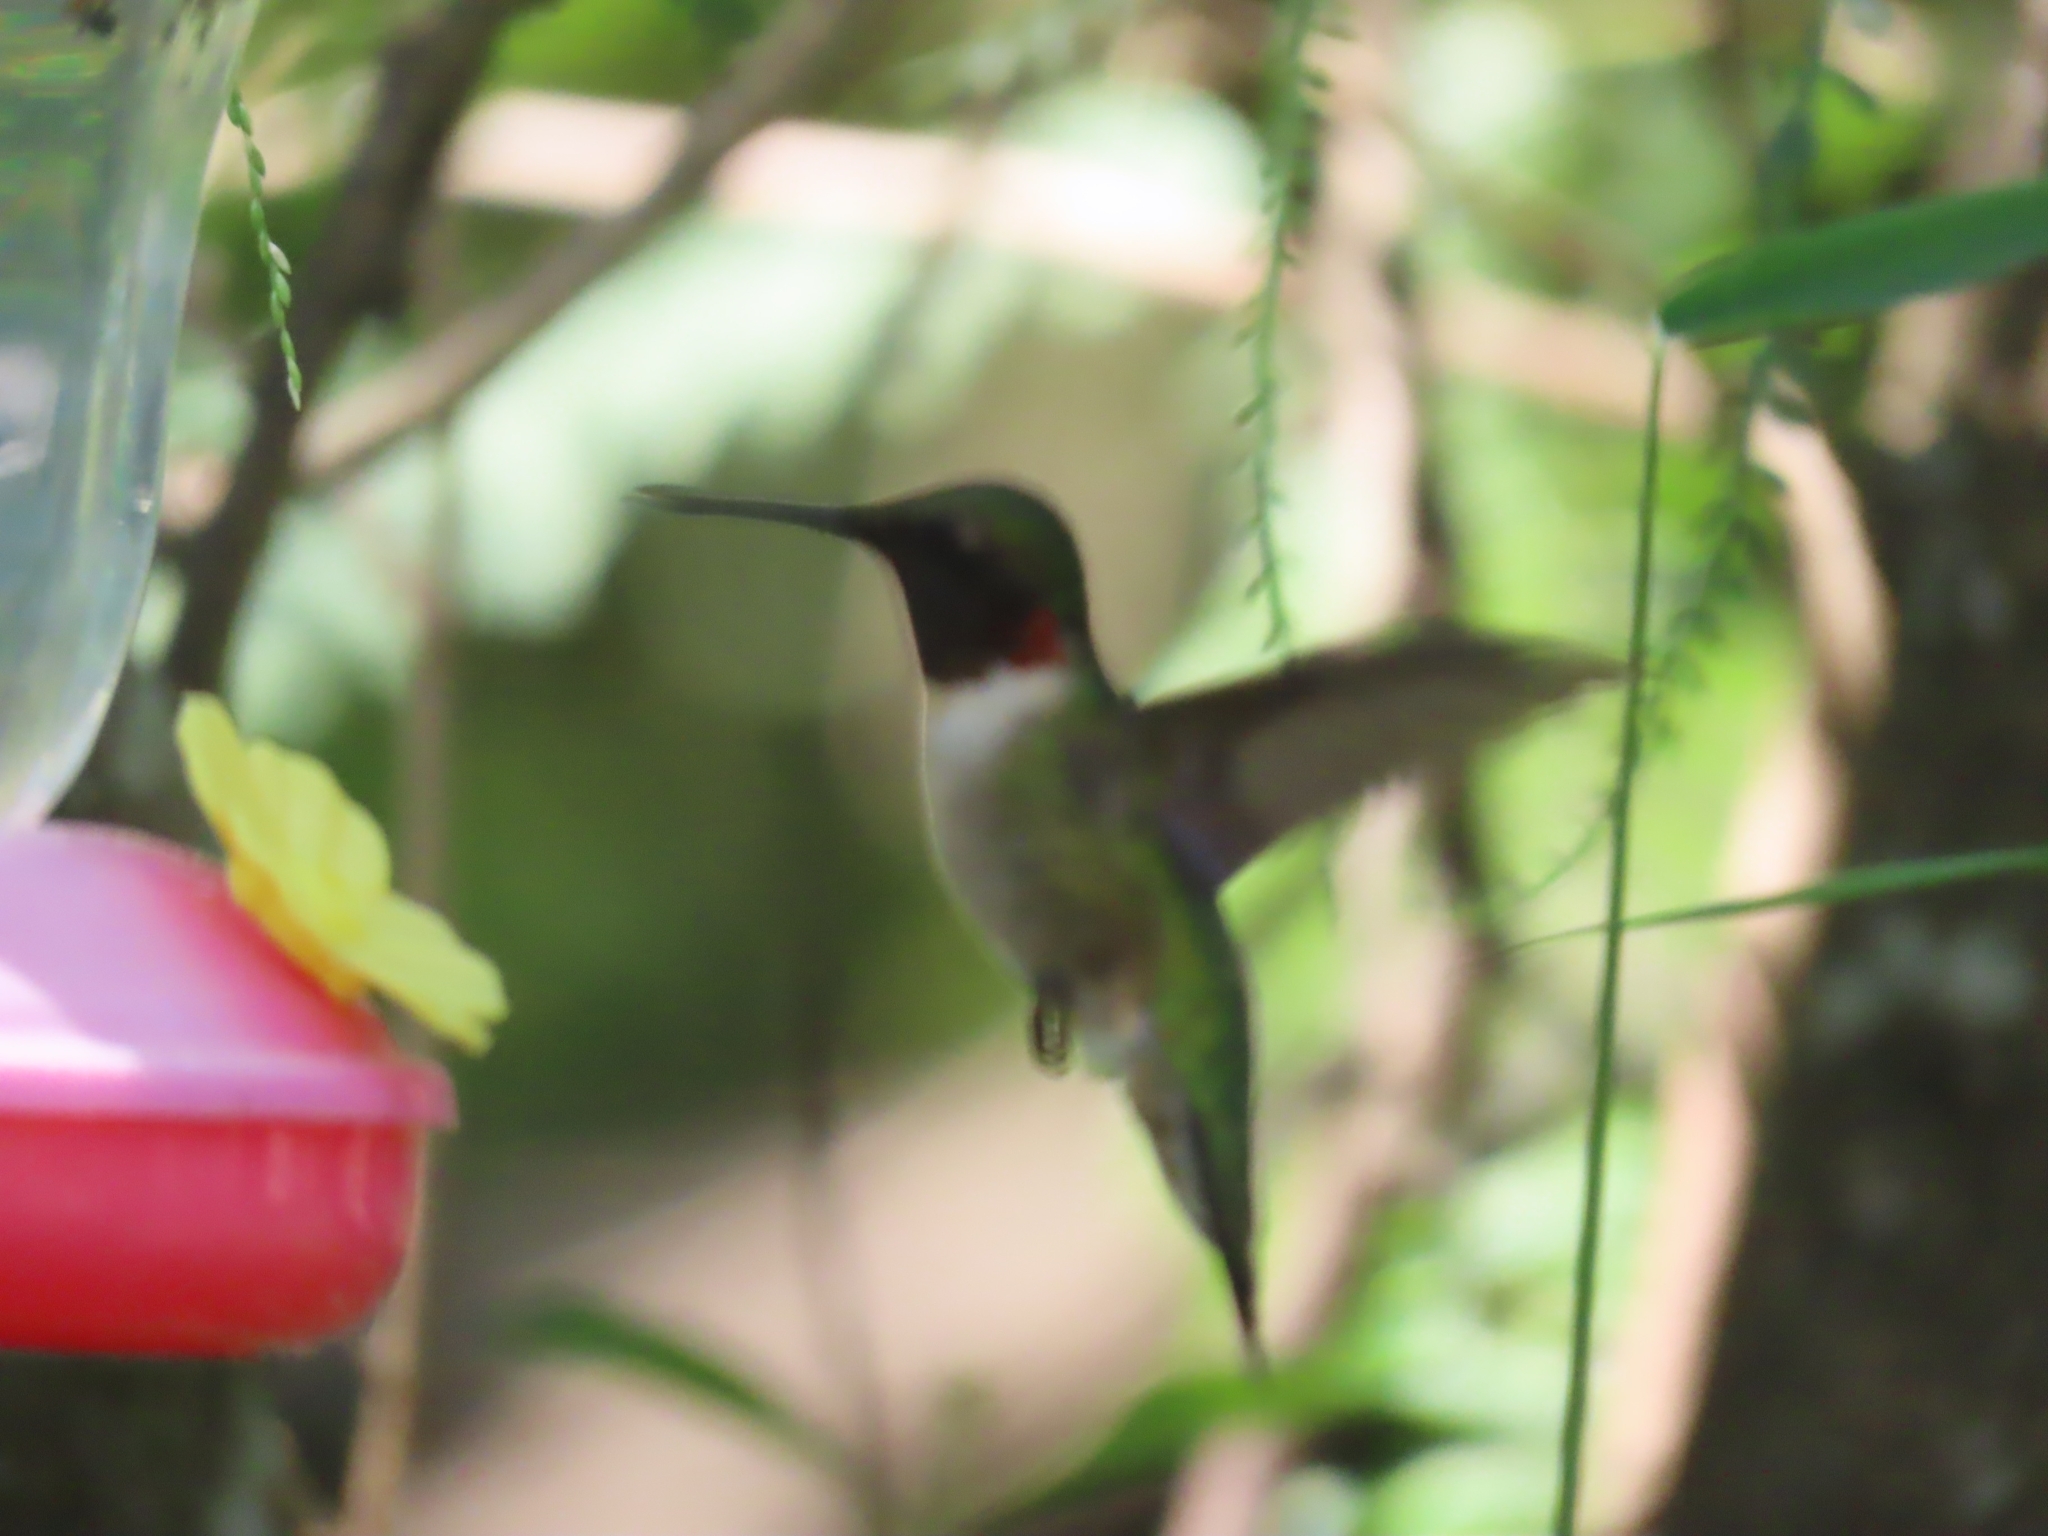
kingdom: Animalia
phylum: Chordata
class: Aves
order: Apodiformes
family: Trochilidae
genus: Archilochus
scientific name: Archilochus colubris
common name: Ruby-throated hummingbird
